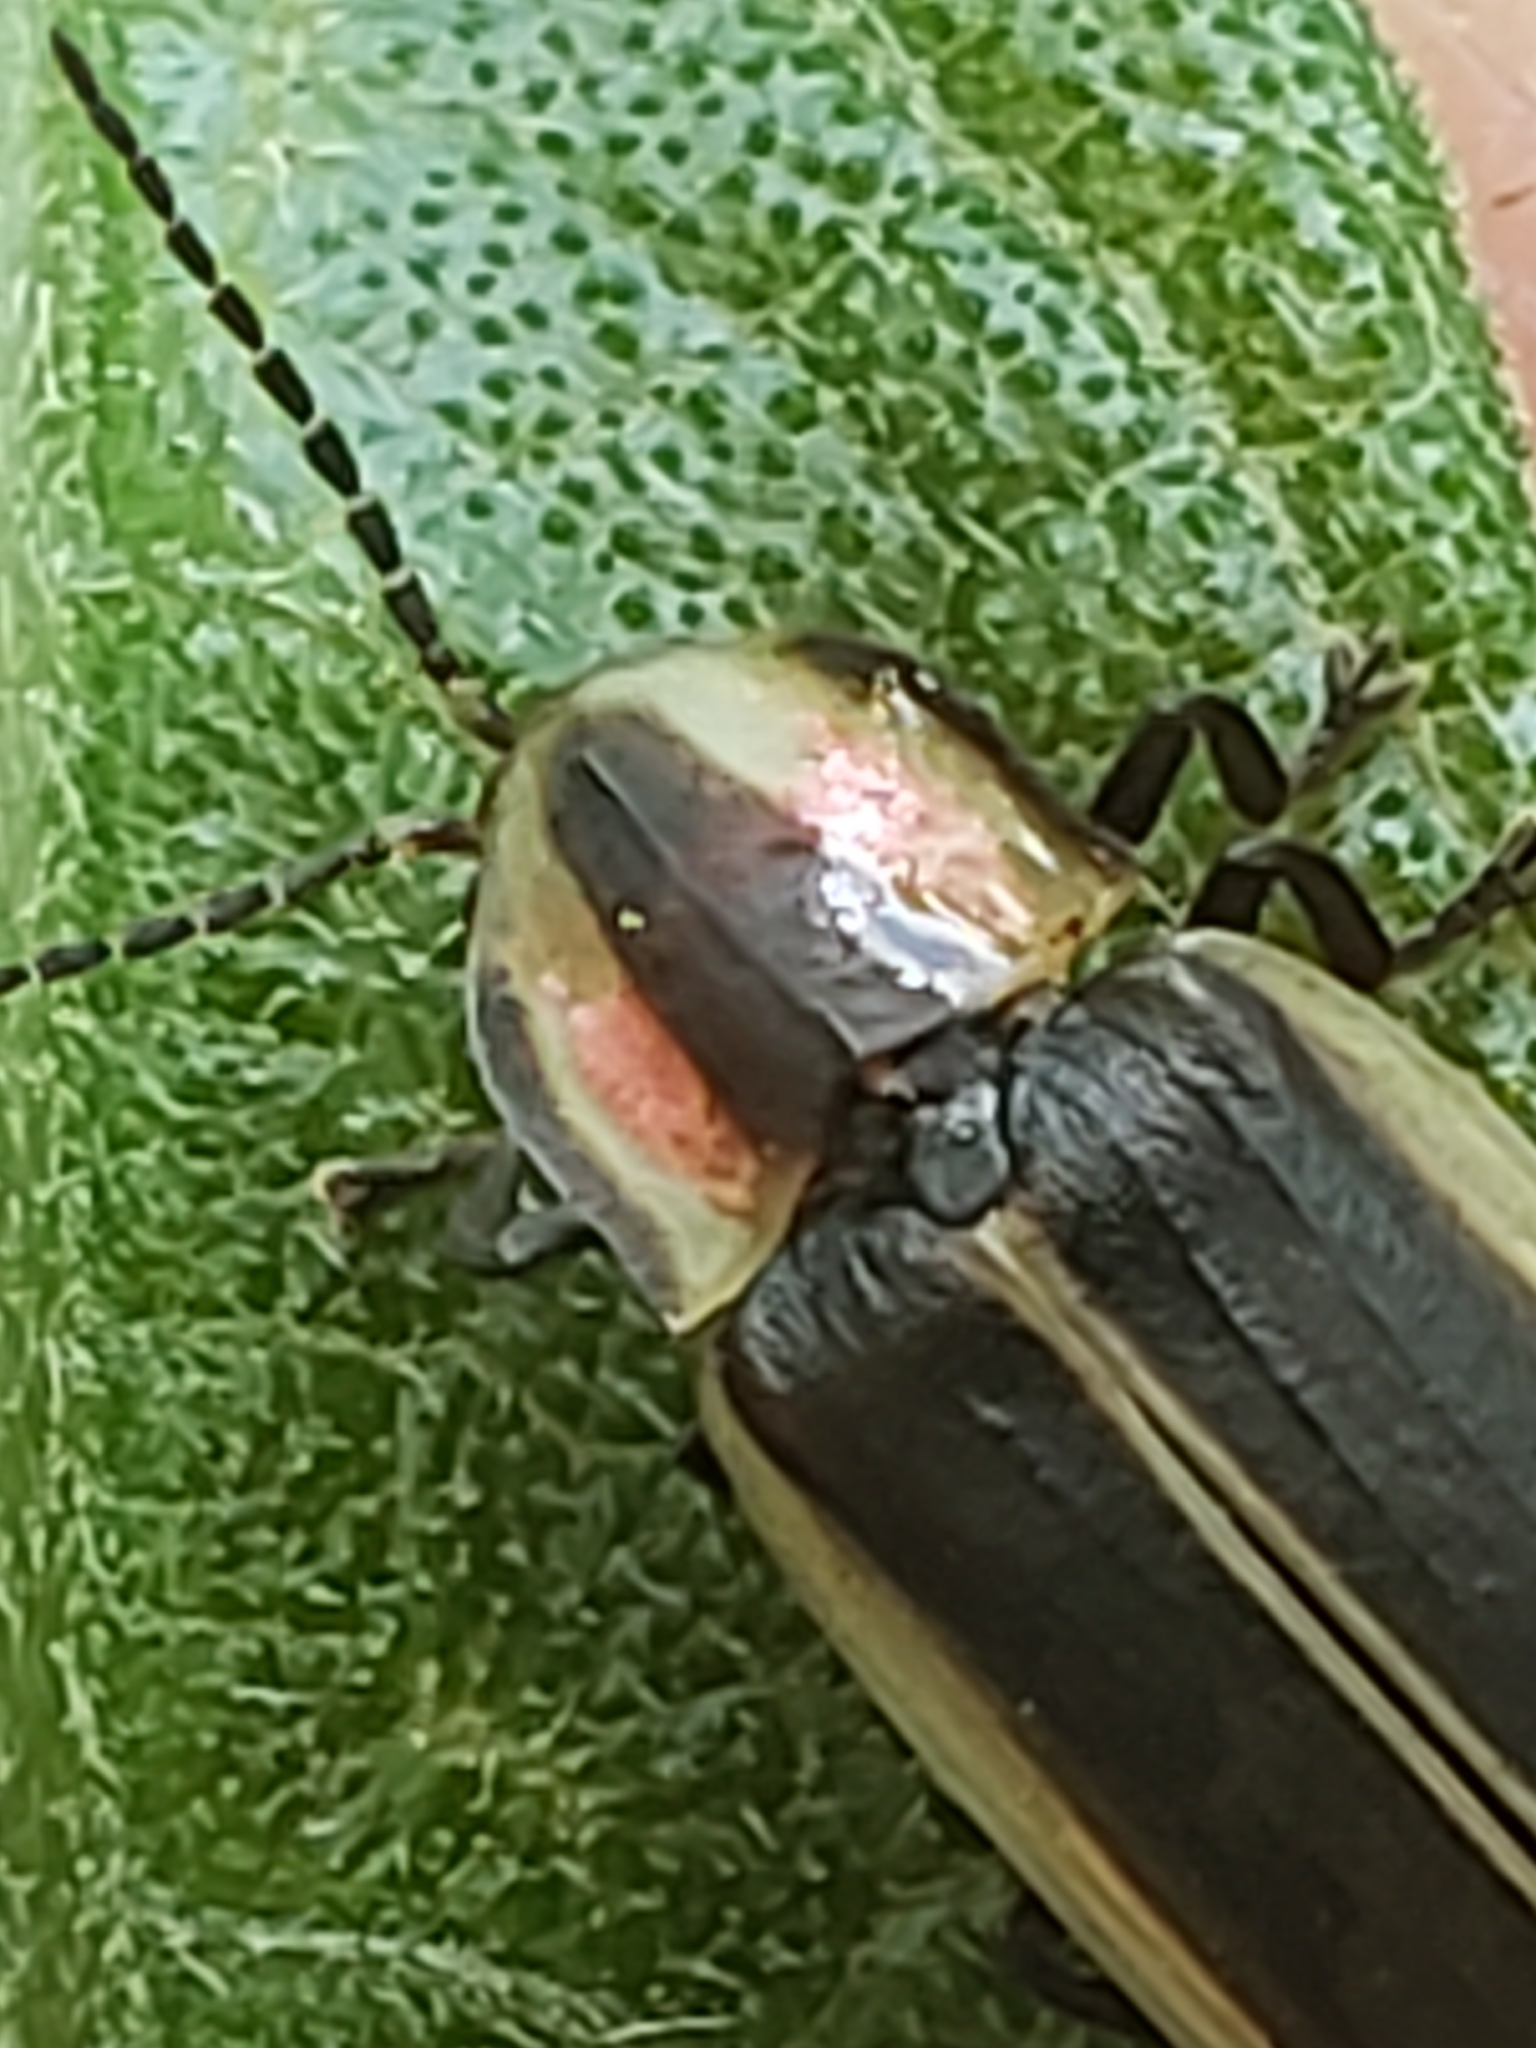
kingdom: Animalia
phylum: Arthropoda
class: Insecta
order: Coleoptera
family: Lampyridae
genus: Pyractomena
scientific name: Pyractomena angulata
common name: Candle firefly
